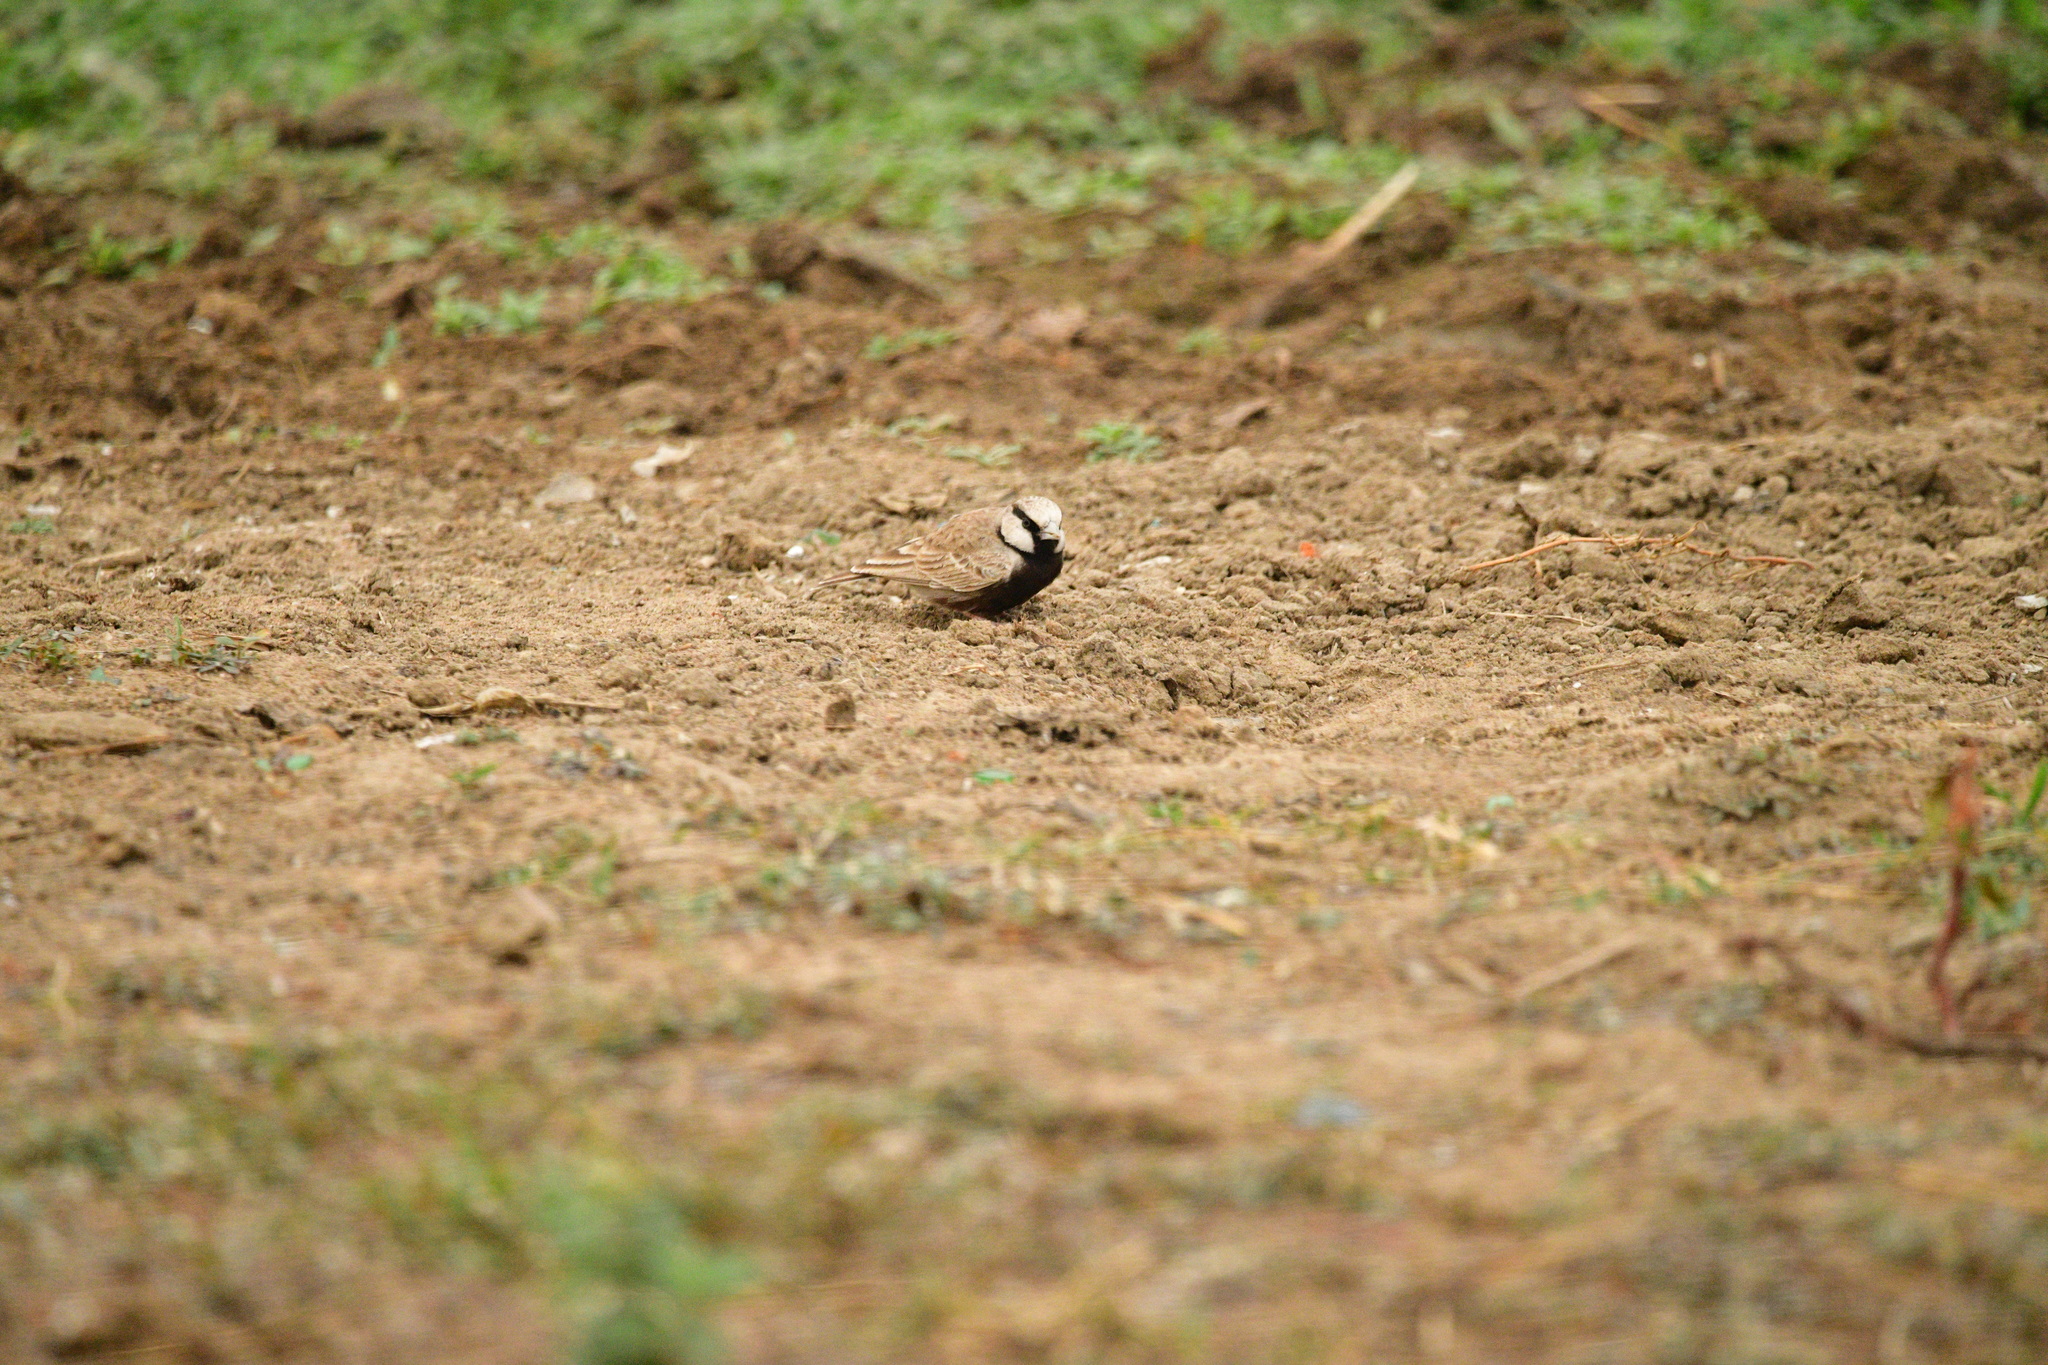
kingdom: Animalia
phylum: Chordata
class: Aves
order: Passeriformes
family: Alaudidae
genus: Eremopterix
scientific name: Eremopterix griseus
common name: Ashy-crowned sparrow-lark
